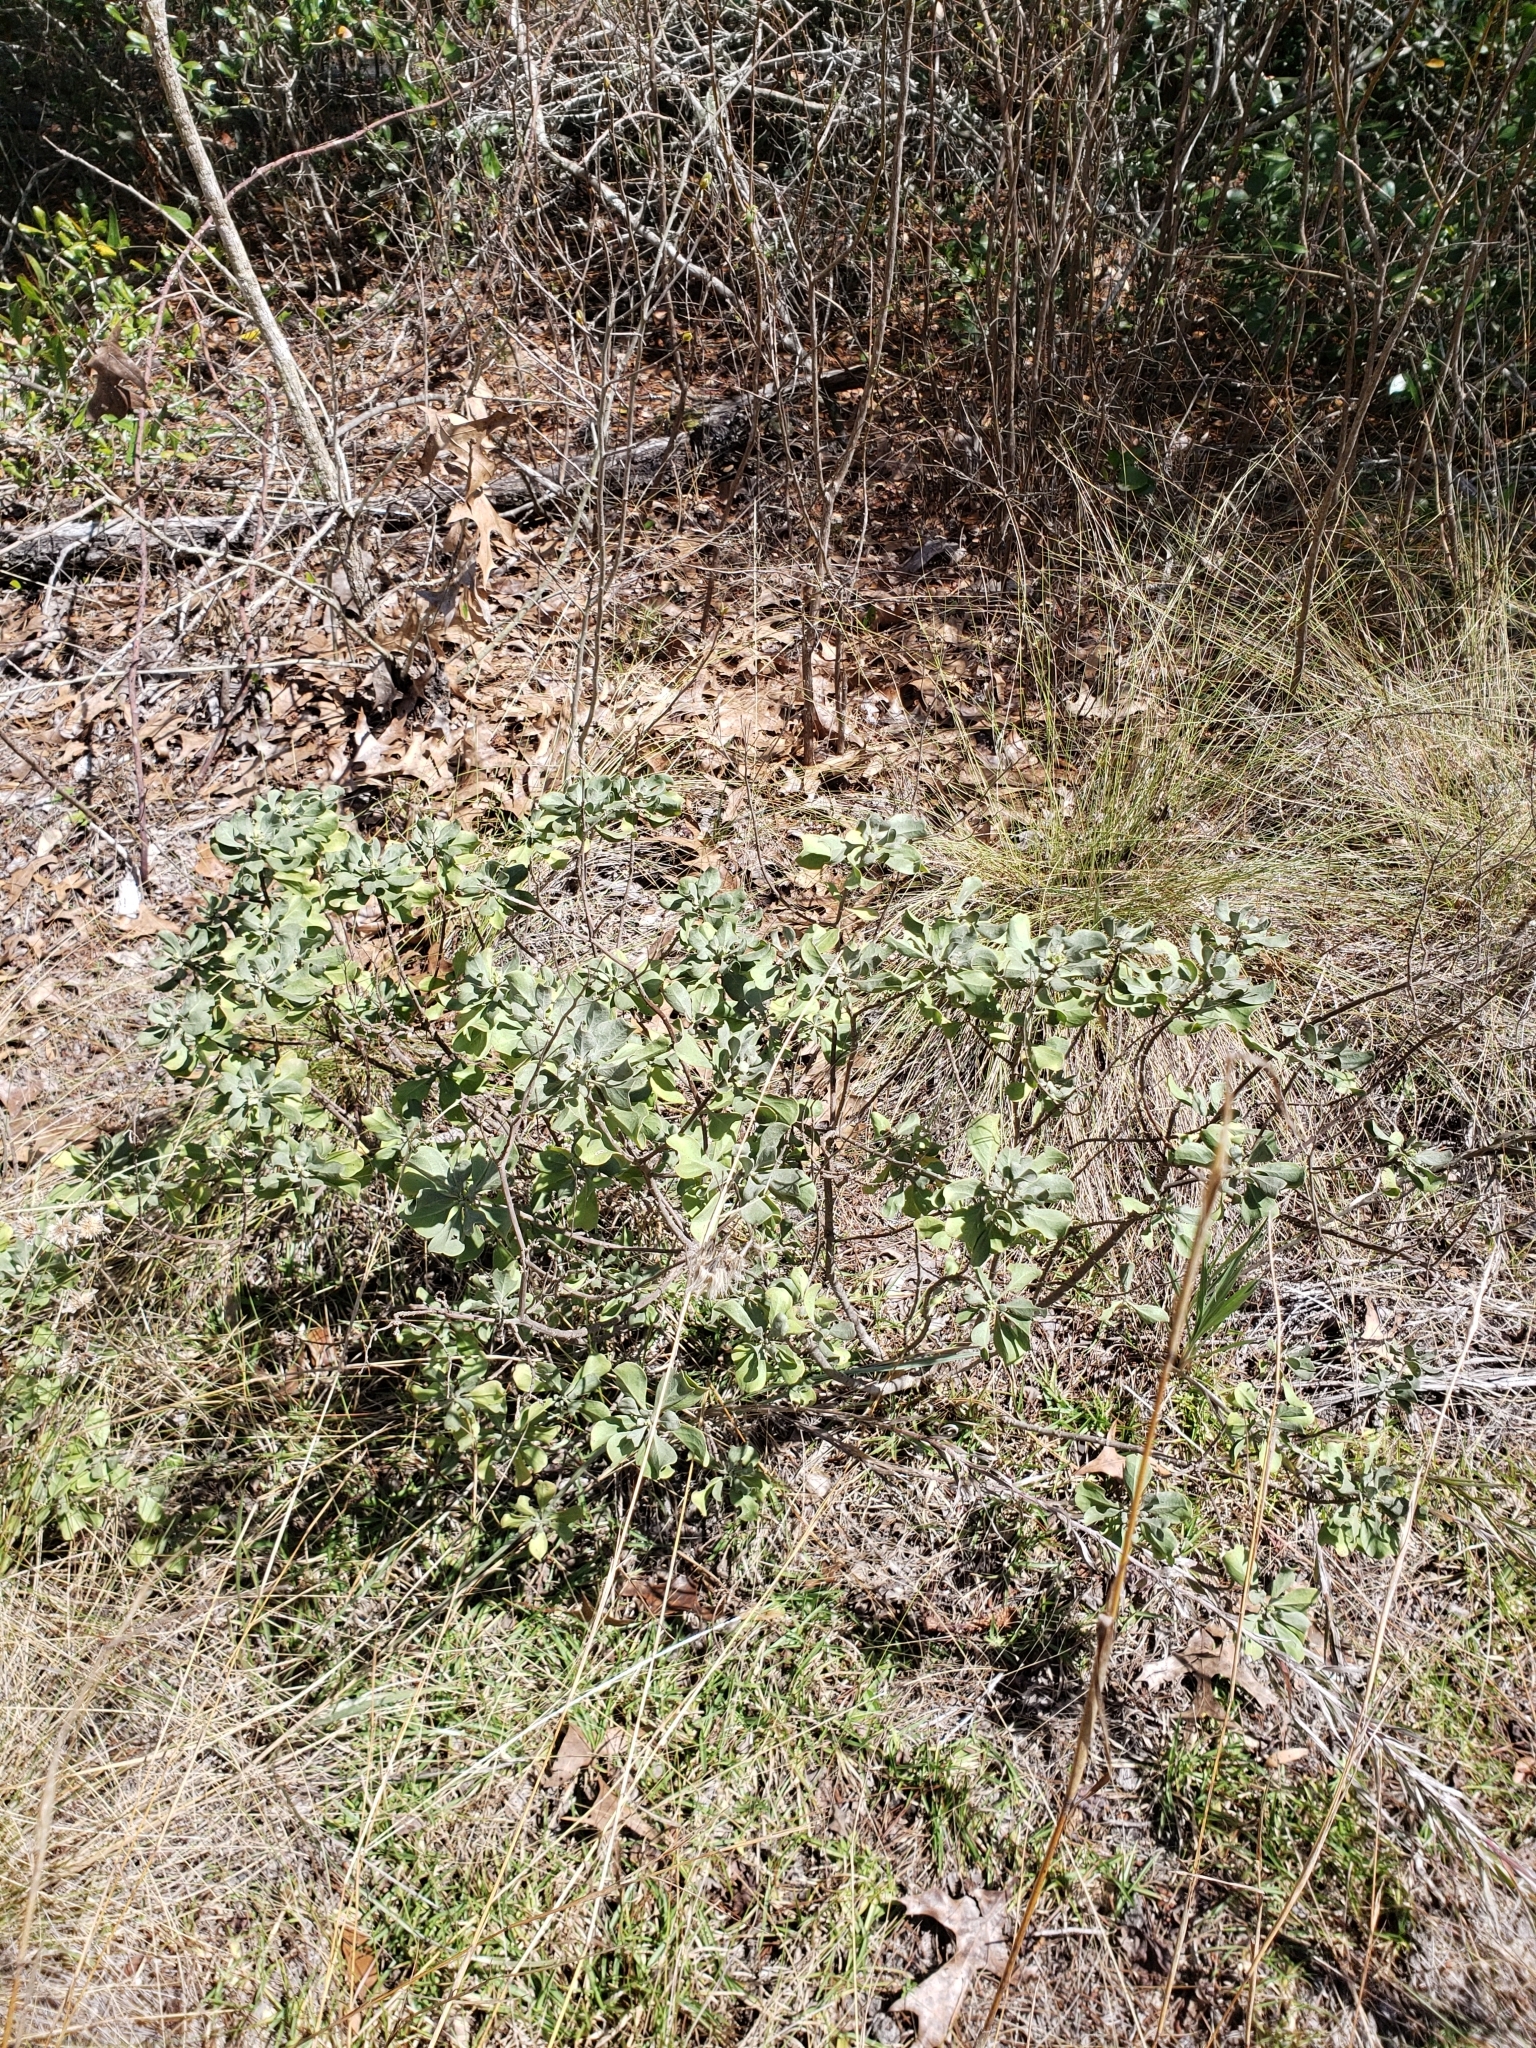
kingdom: Plantae
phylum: Tracheophyta
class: Magnoliopsida
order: Asterales
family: Asteraceae
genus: Garberia
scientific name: Garberia heterophylla
